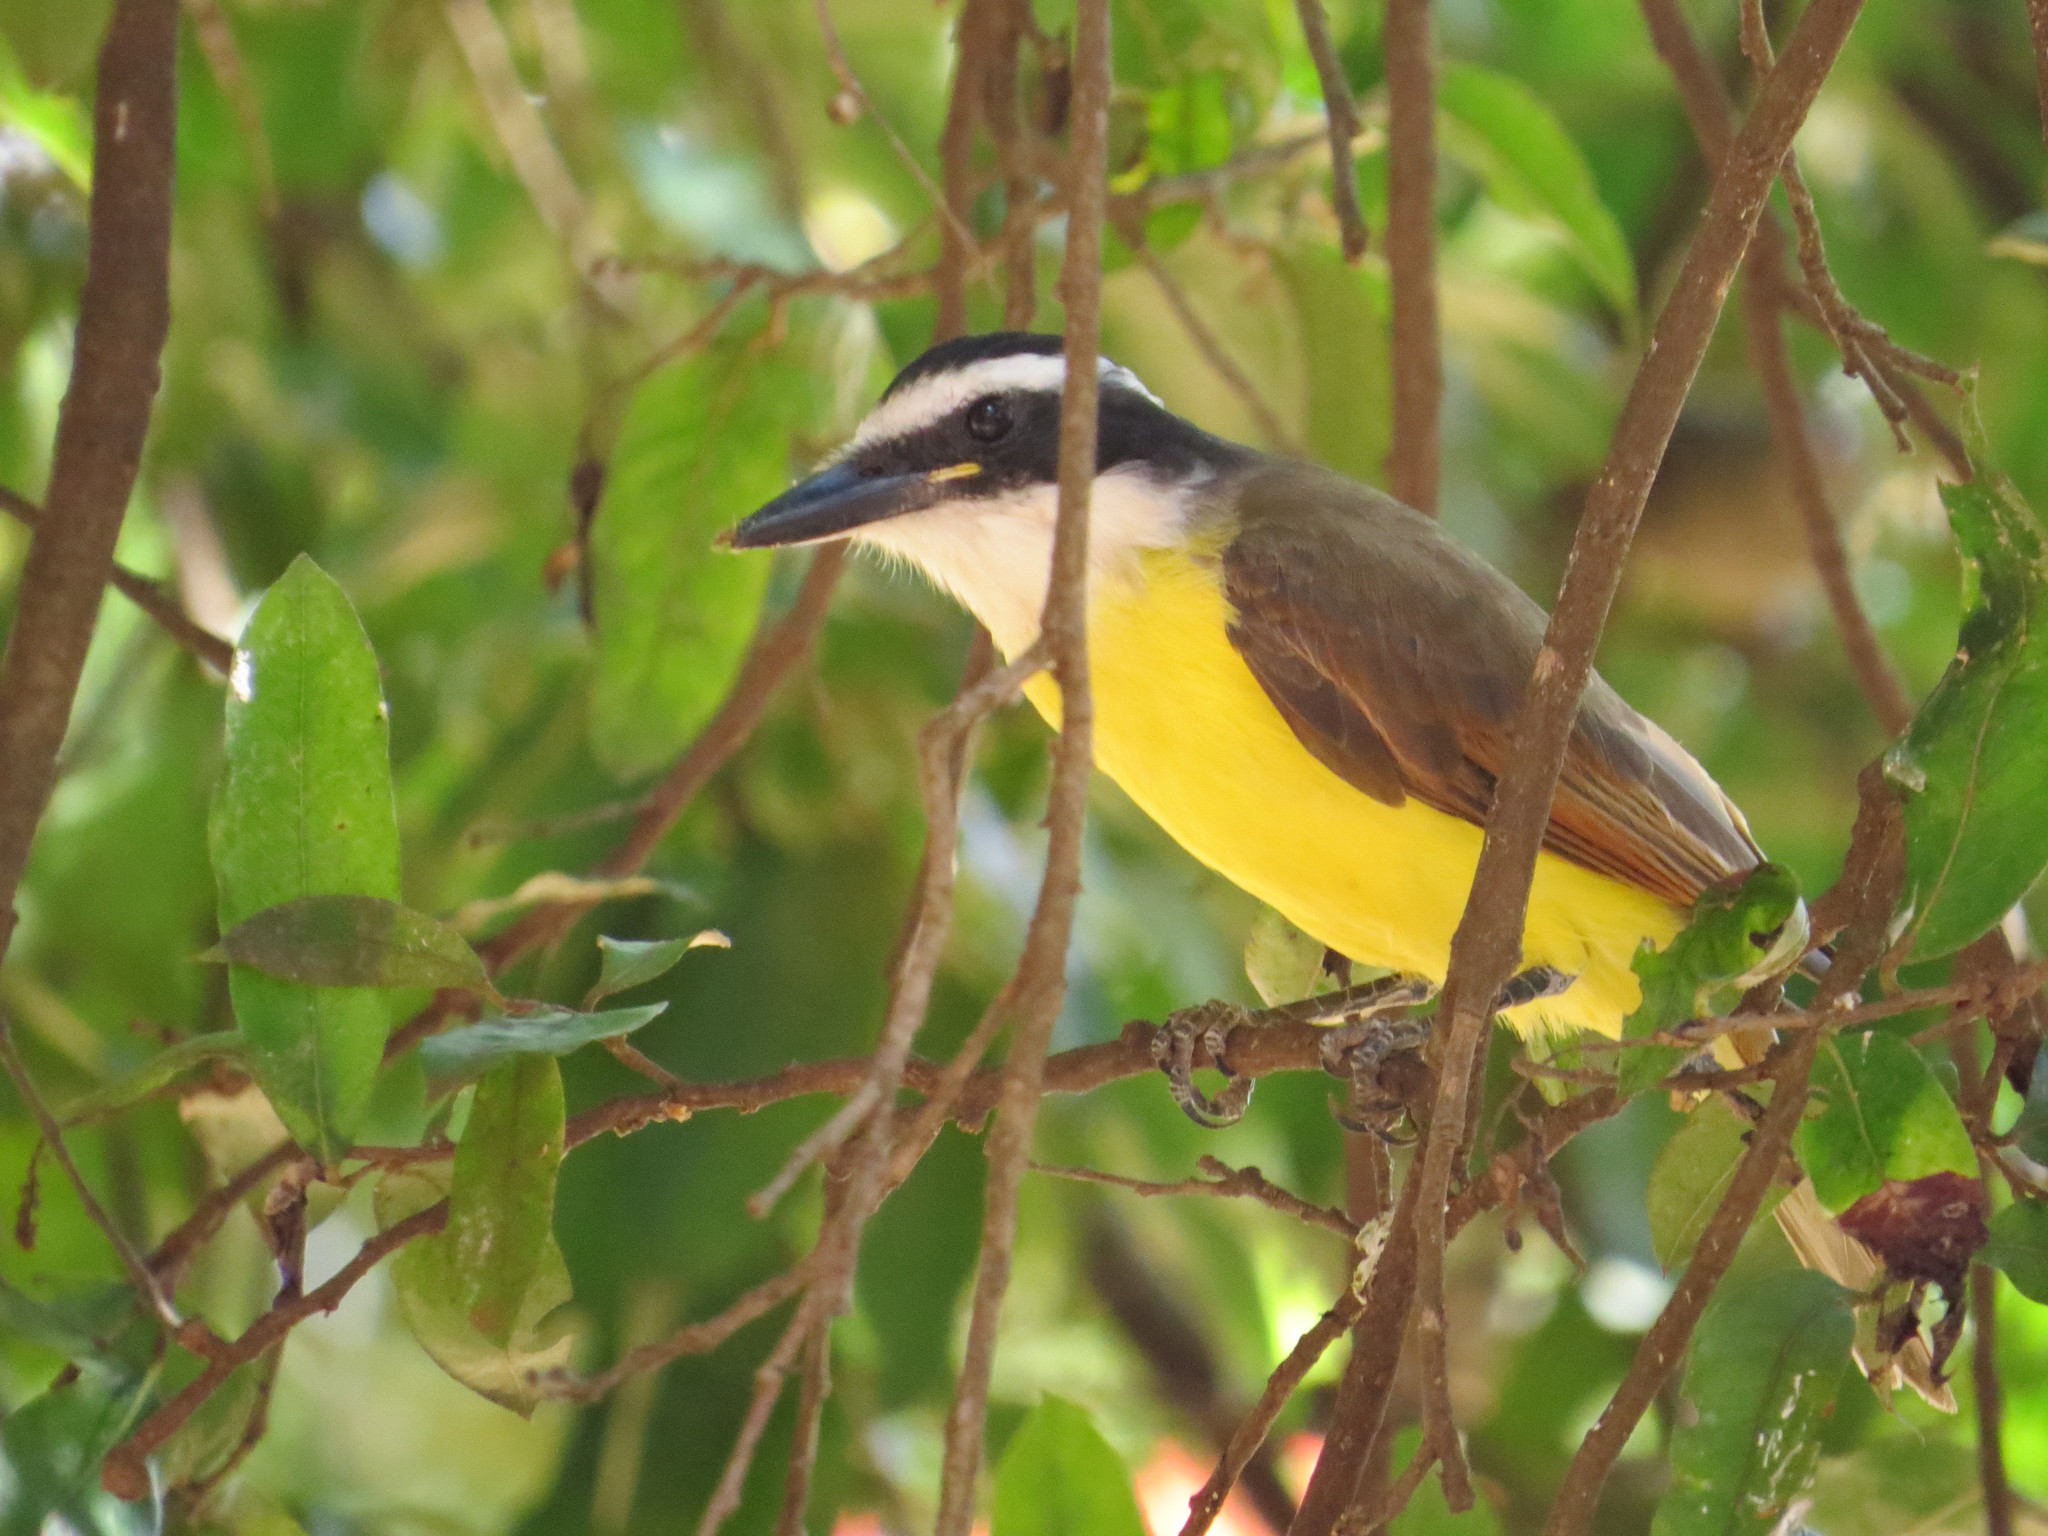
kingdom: Animalia
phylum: Chordata
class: Aves
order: Passeriformes
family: Tyrannidae
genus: Pitangus
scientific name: Pitangus sulphuratus
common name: Great kiskadee
